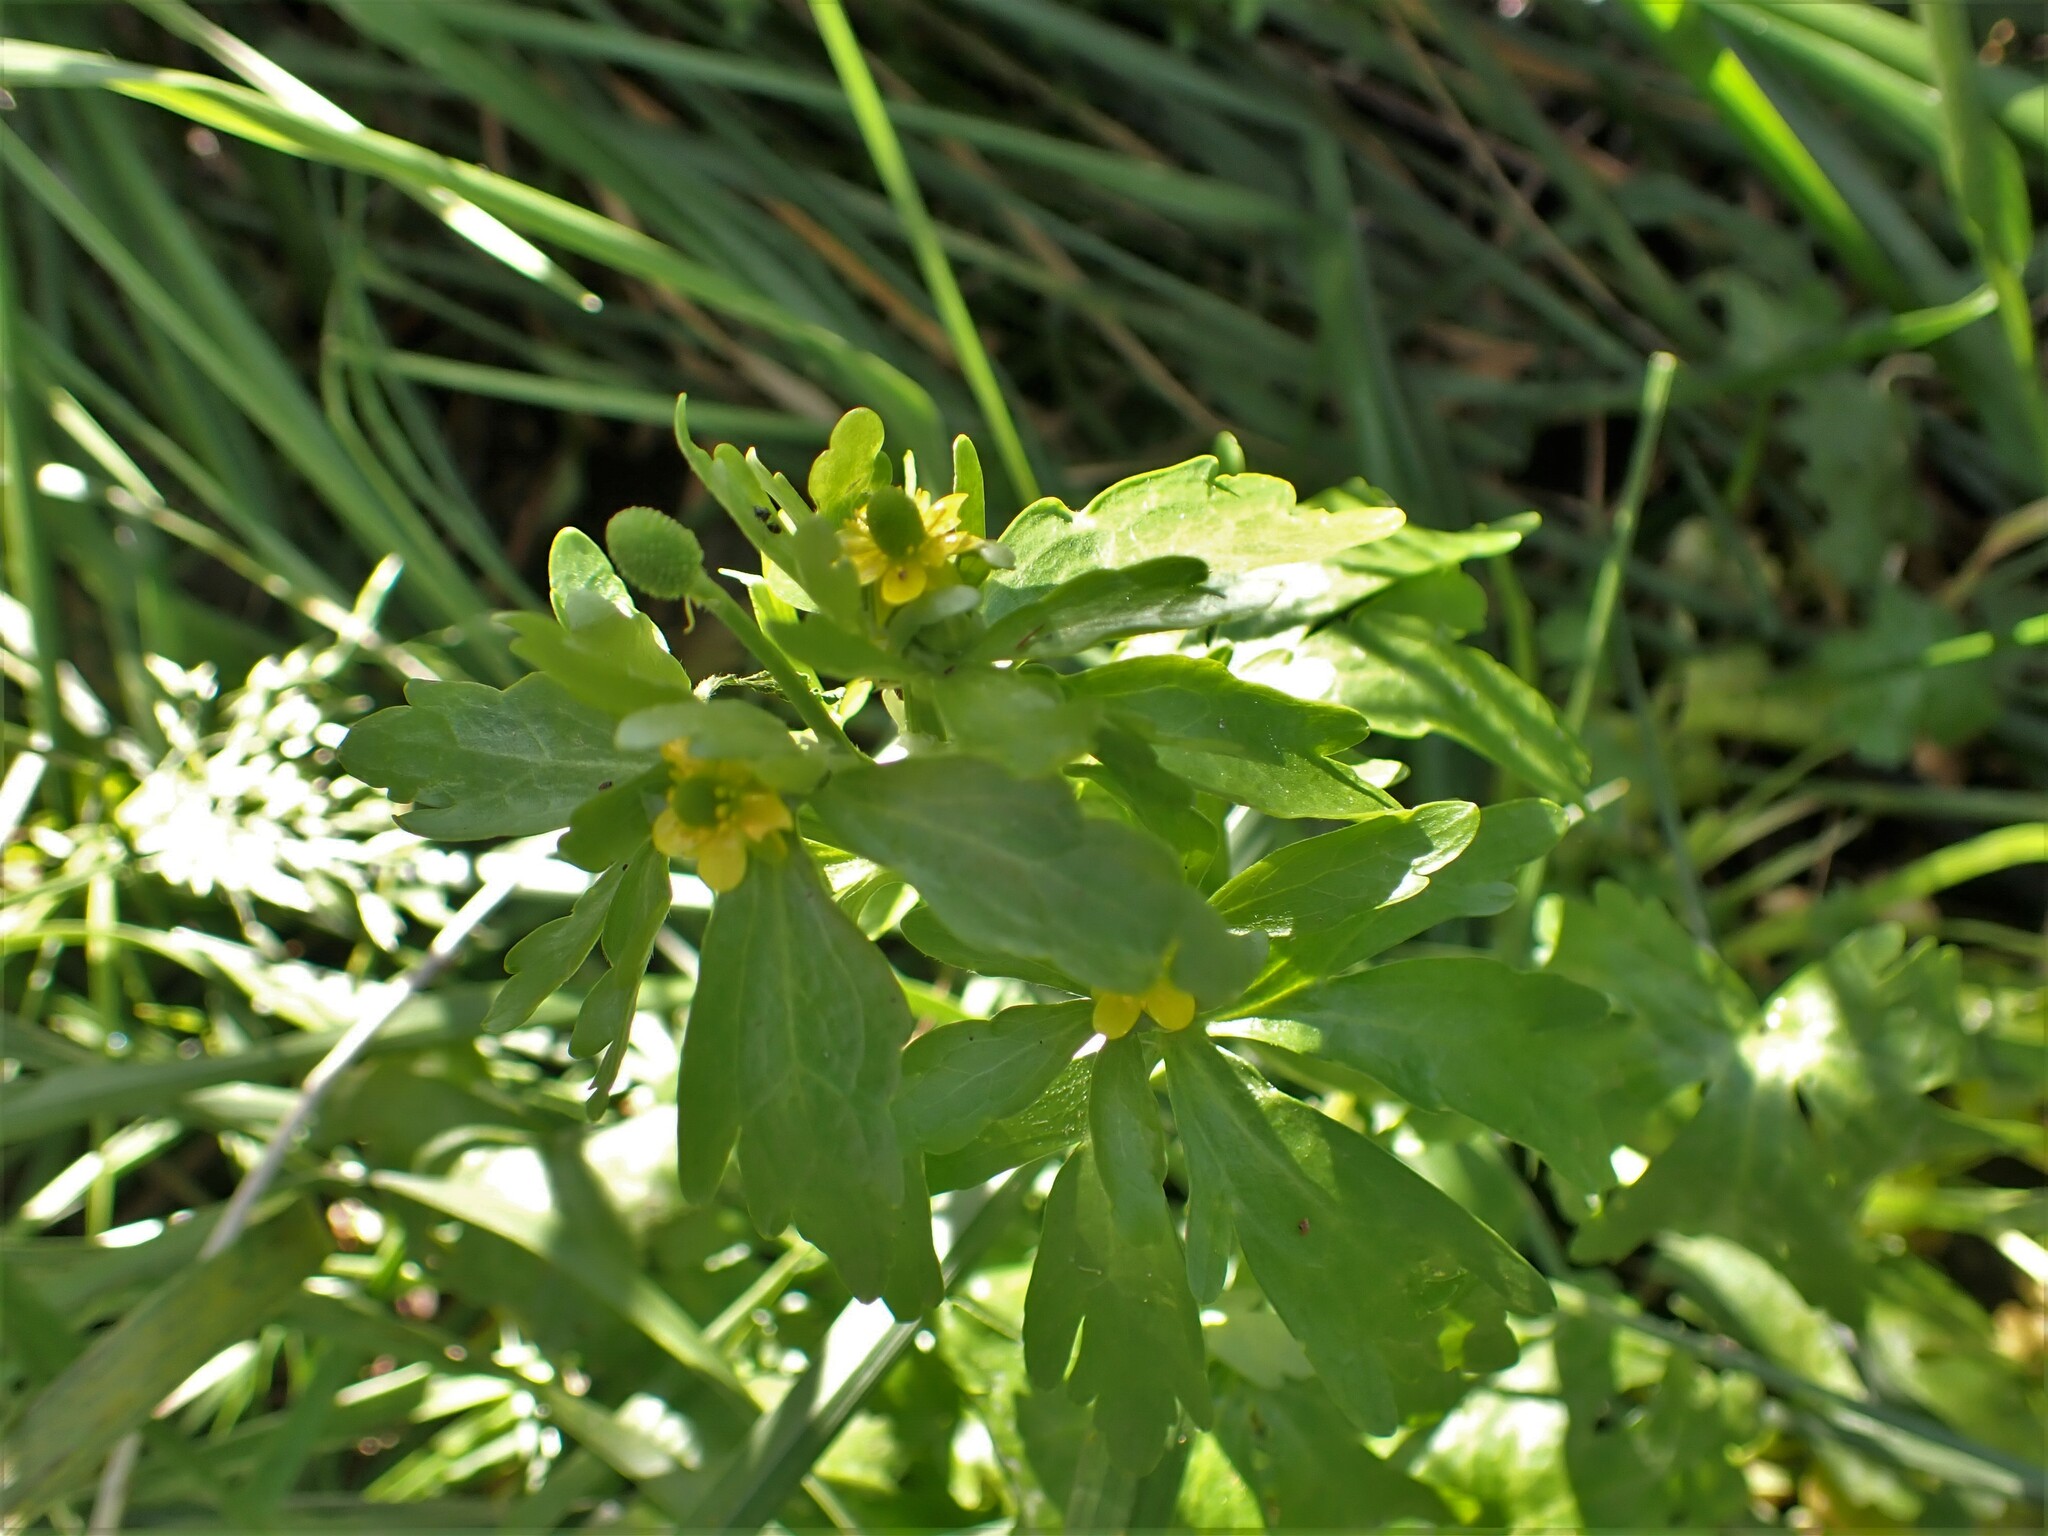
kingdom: Plantae
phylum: Tracheophyta
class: Magnoliopsida
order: Ranunculales
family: Ranunculaceae
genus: Ranunculus
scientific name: Ranunculus sceleratus
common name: Celery-leaved buttercup
